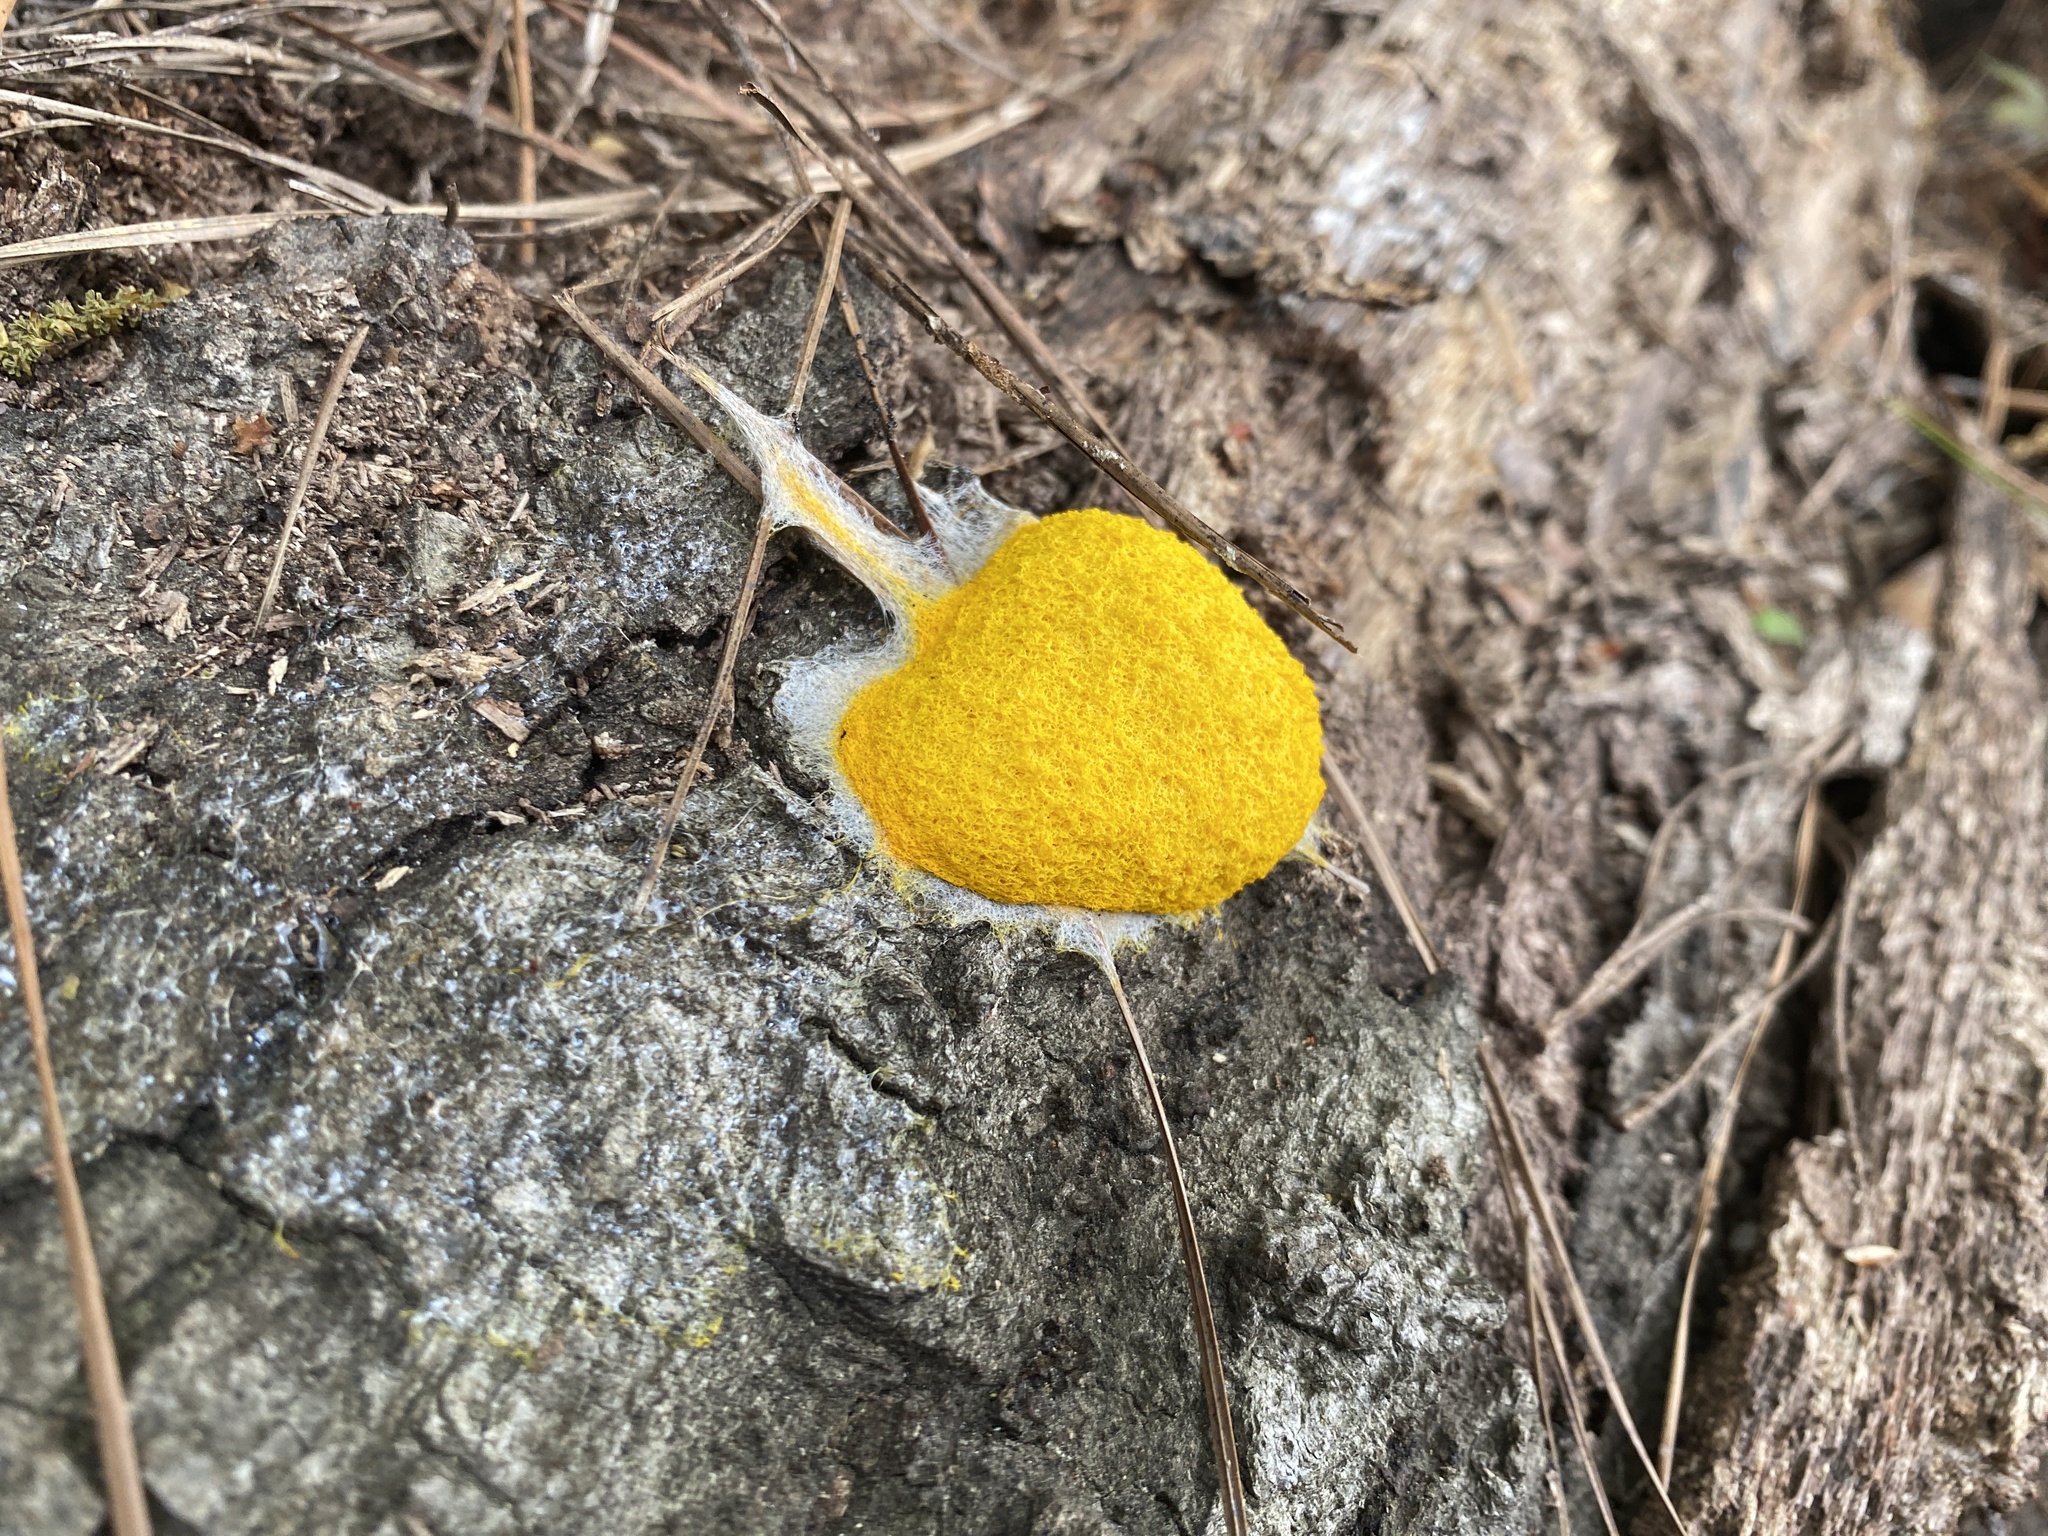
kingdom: Protozoa
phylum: Mycetozoa
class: Myxomycetes
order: Physarales
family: Physaraceae
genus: Fuligo
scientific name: Fuligo septica
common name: Dog vomit slime mold
